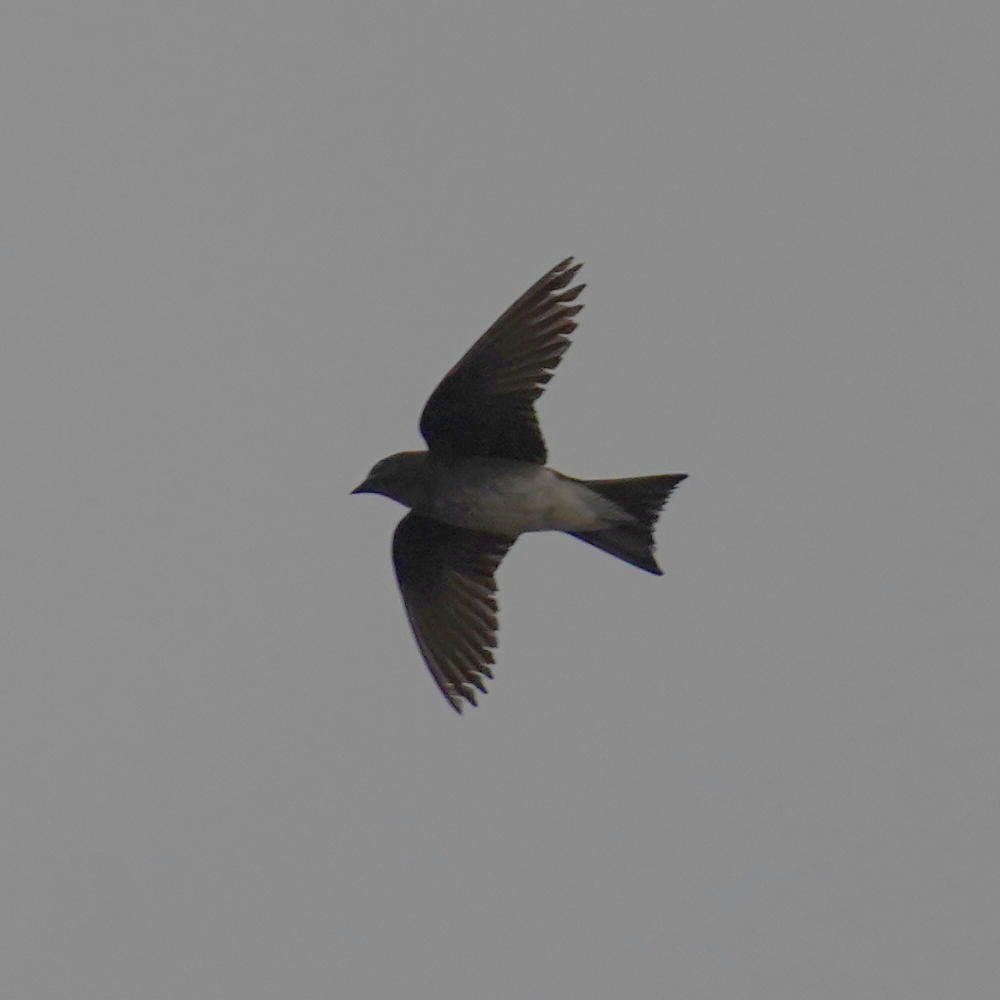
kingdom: Animalia
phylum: Chordata
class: Aves
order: Passeriformes
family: Hirundinidae
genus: Progne
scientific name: Progne chalybea
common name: Grey-breasted martin
